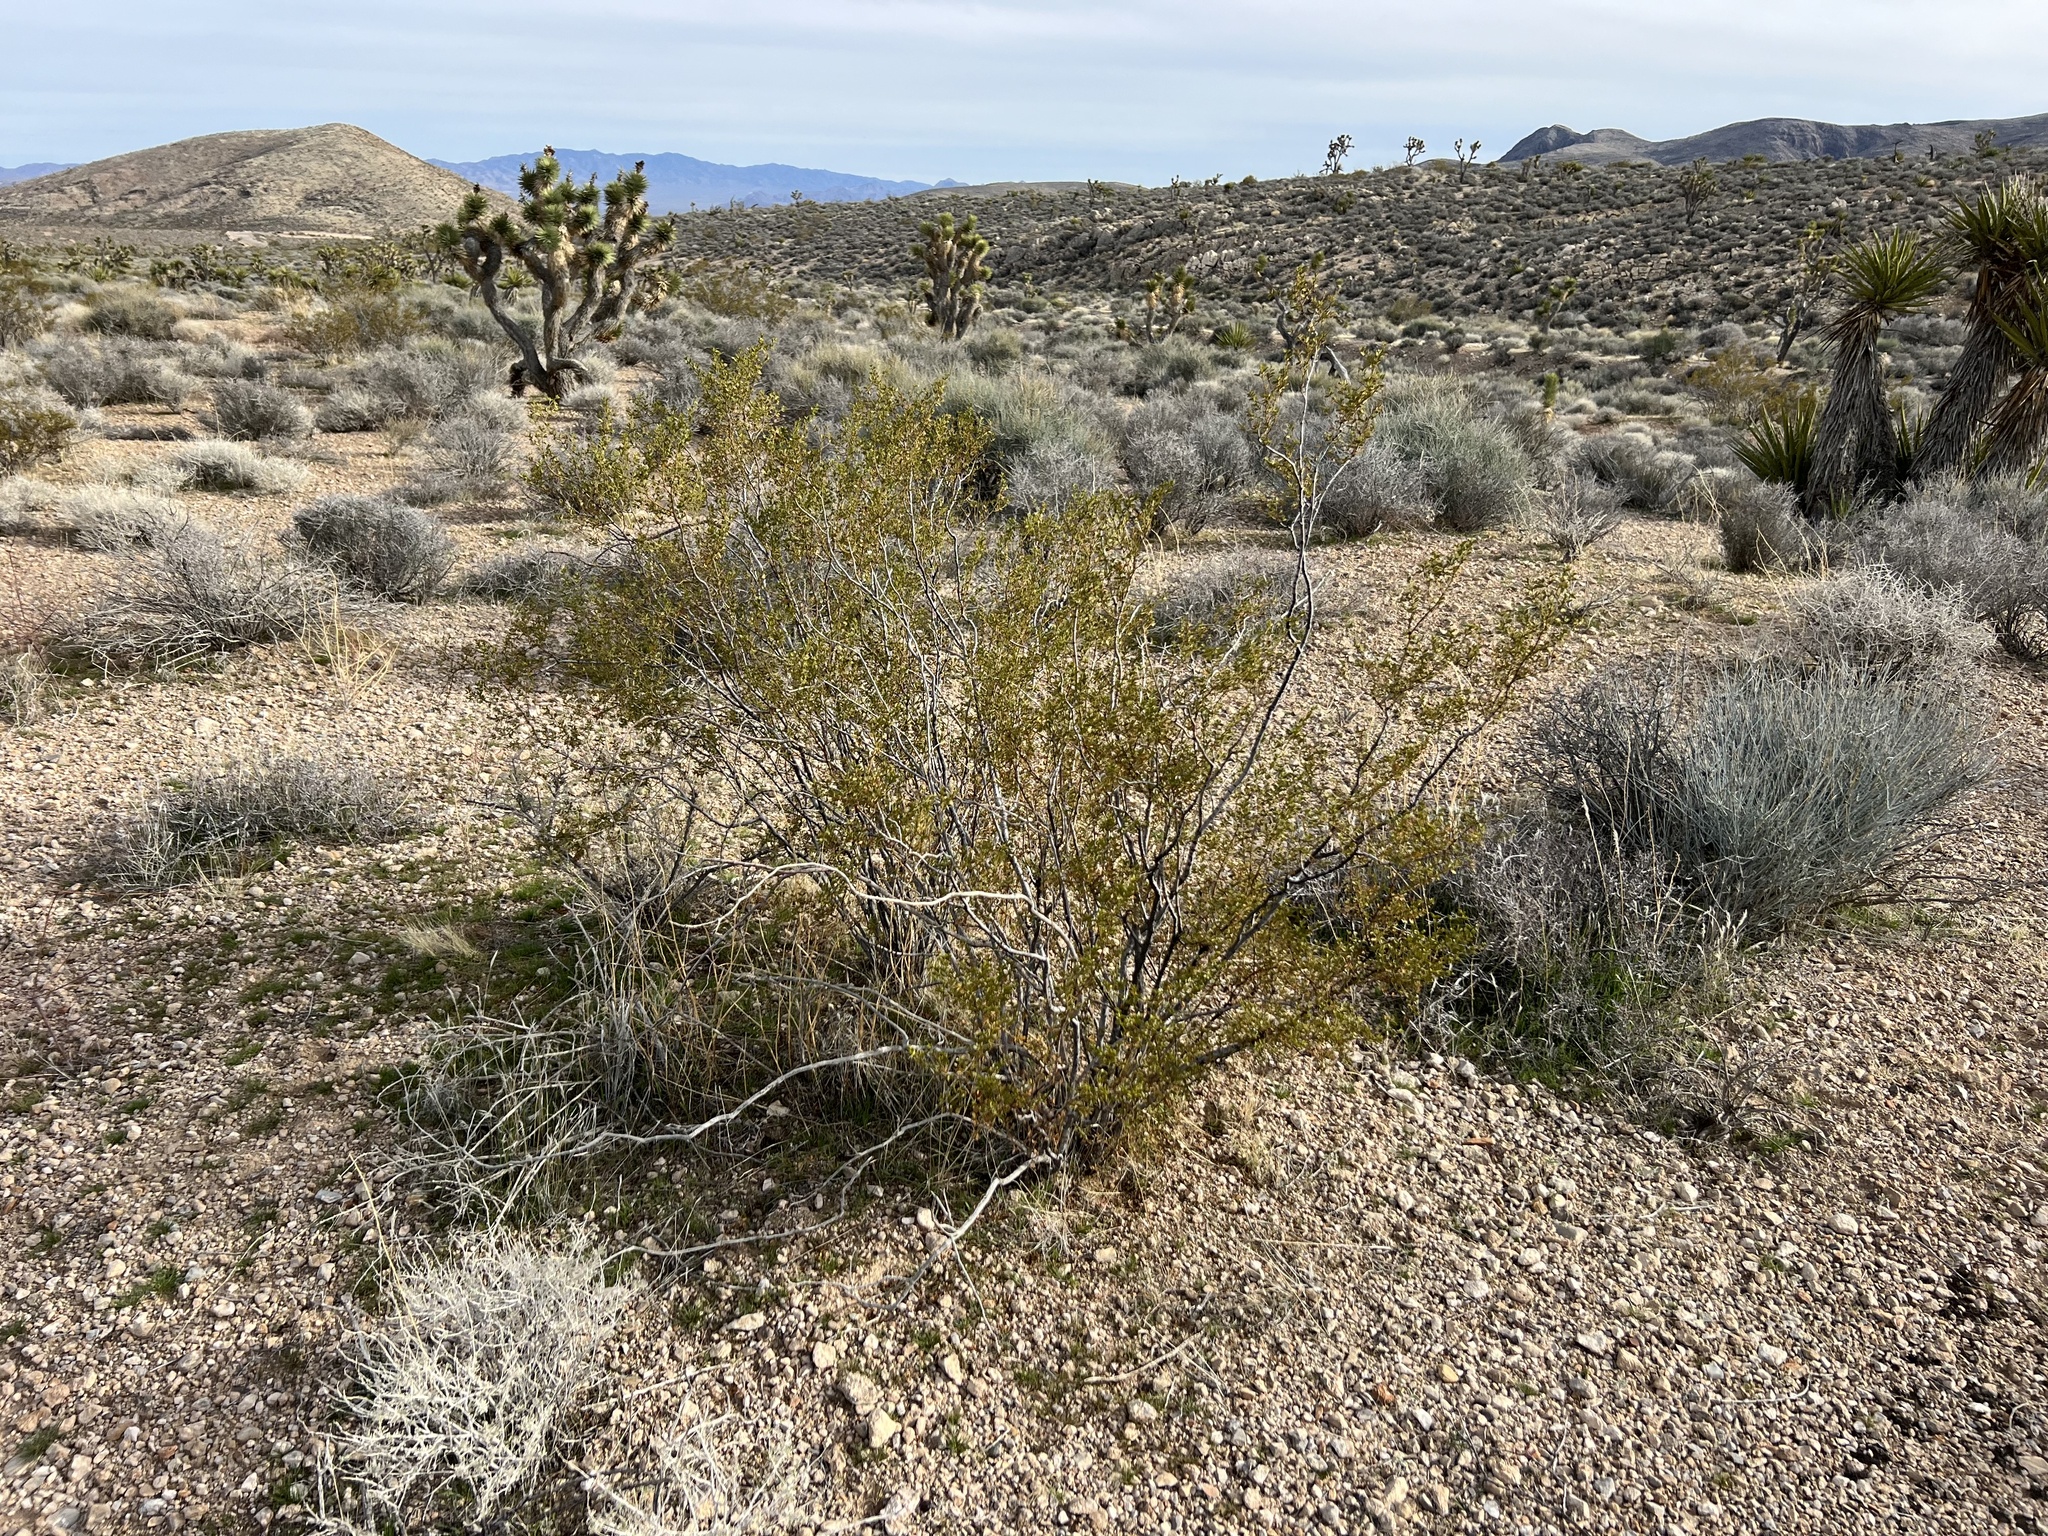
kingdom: Plantae
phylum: Tracheophyta
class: Magnoliopsida
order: Zygophyllales
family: Zygophyllaceae
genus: Larrea
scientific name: Larrea tridentata
